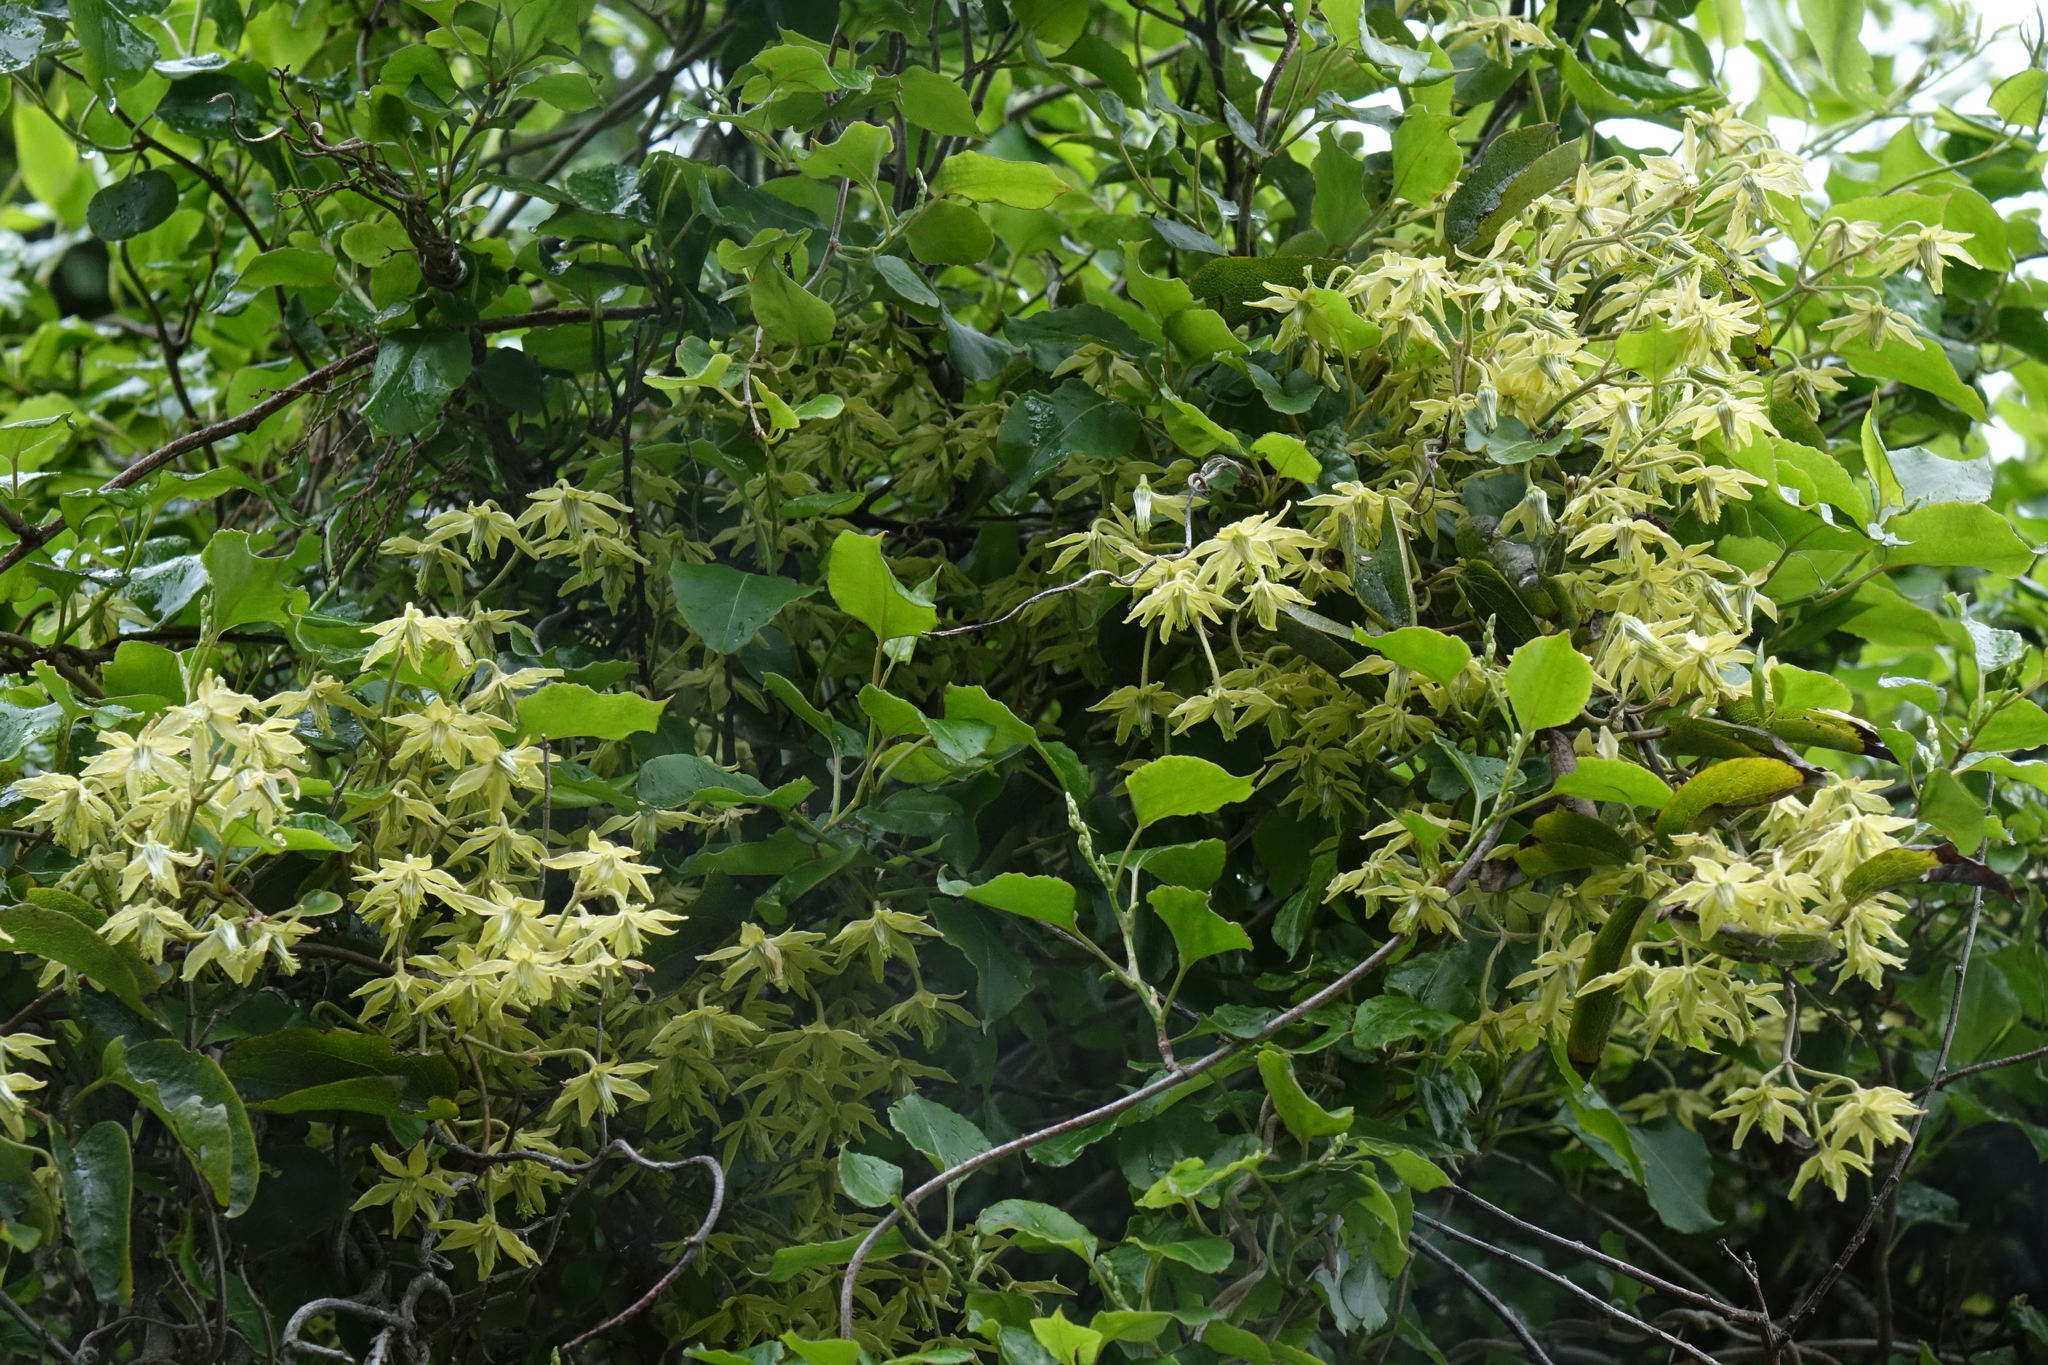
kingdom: Plantae
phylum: Tracheophyta
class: Magnoliopsida
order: Ranunculales
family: Ranunculaceae
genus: Clematis
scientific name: Clematis foetida
